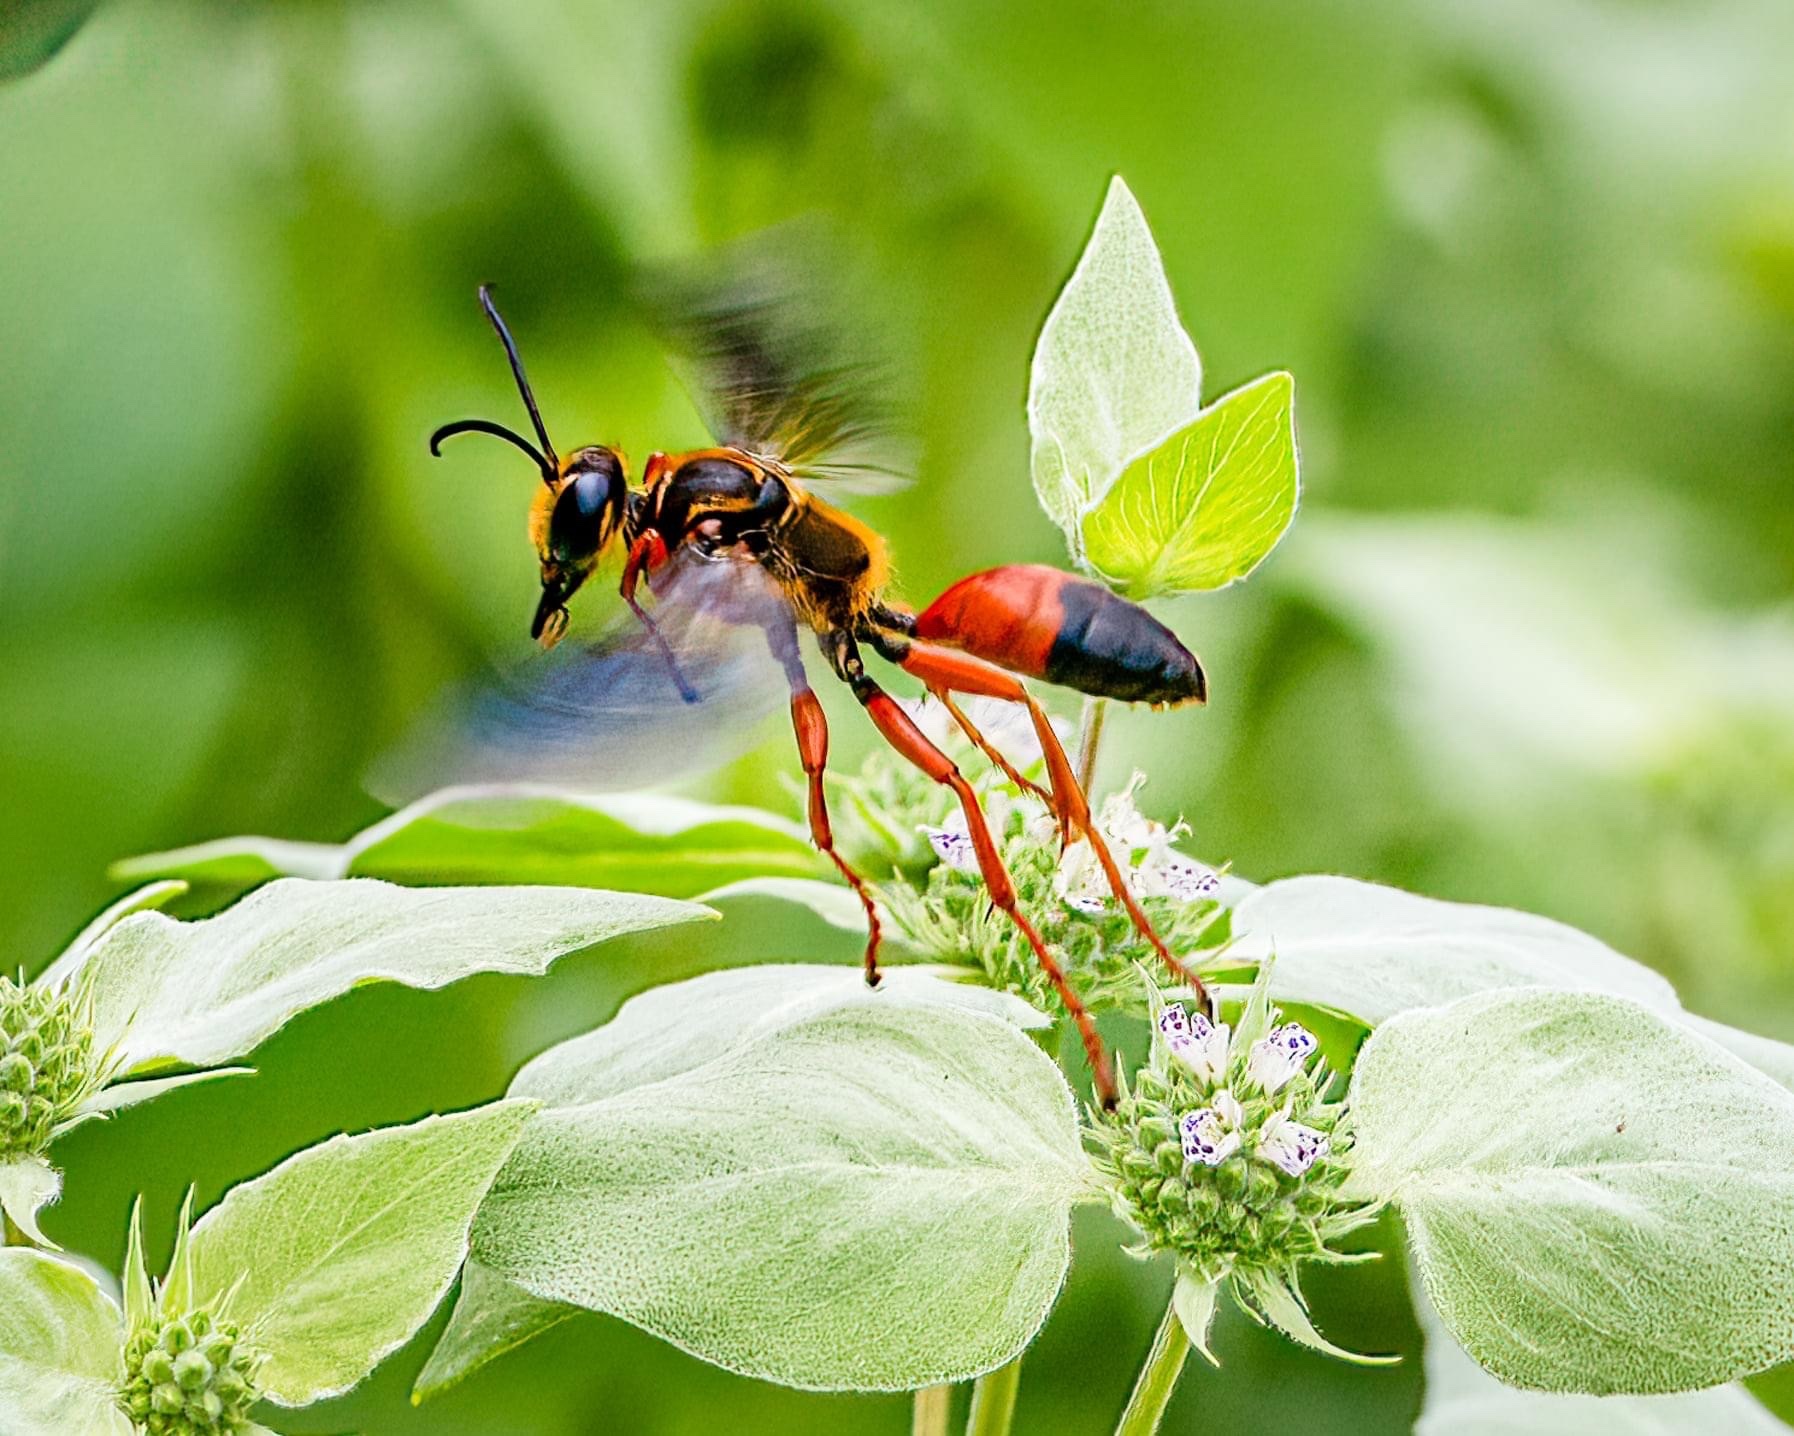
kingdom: Animalia
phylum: Arthropoda
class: Insecta
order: Hymenoptera
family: Sphecidae
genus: Sphex
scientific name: Sphex ichneumoneus
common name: Great golden digger wasp
